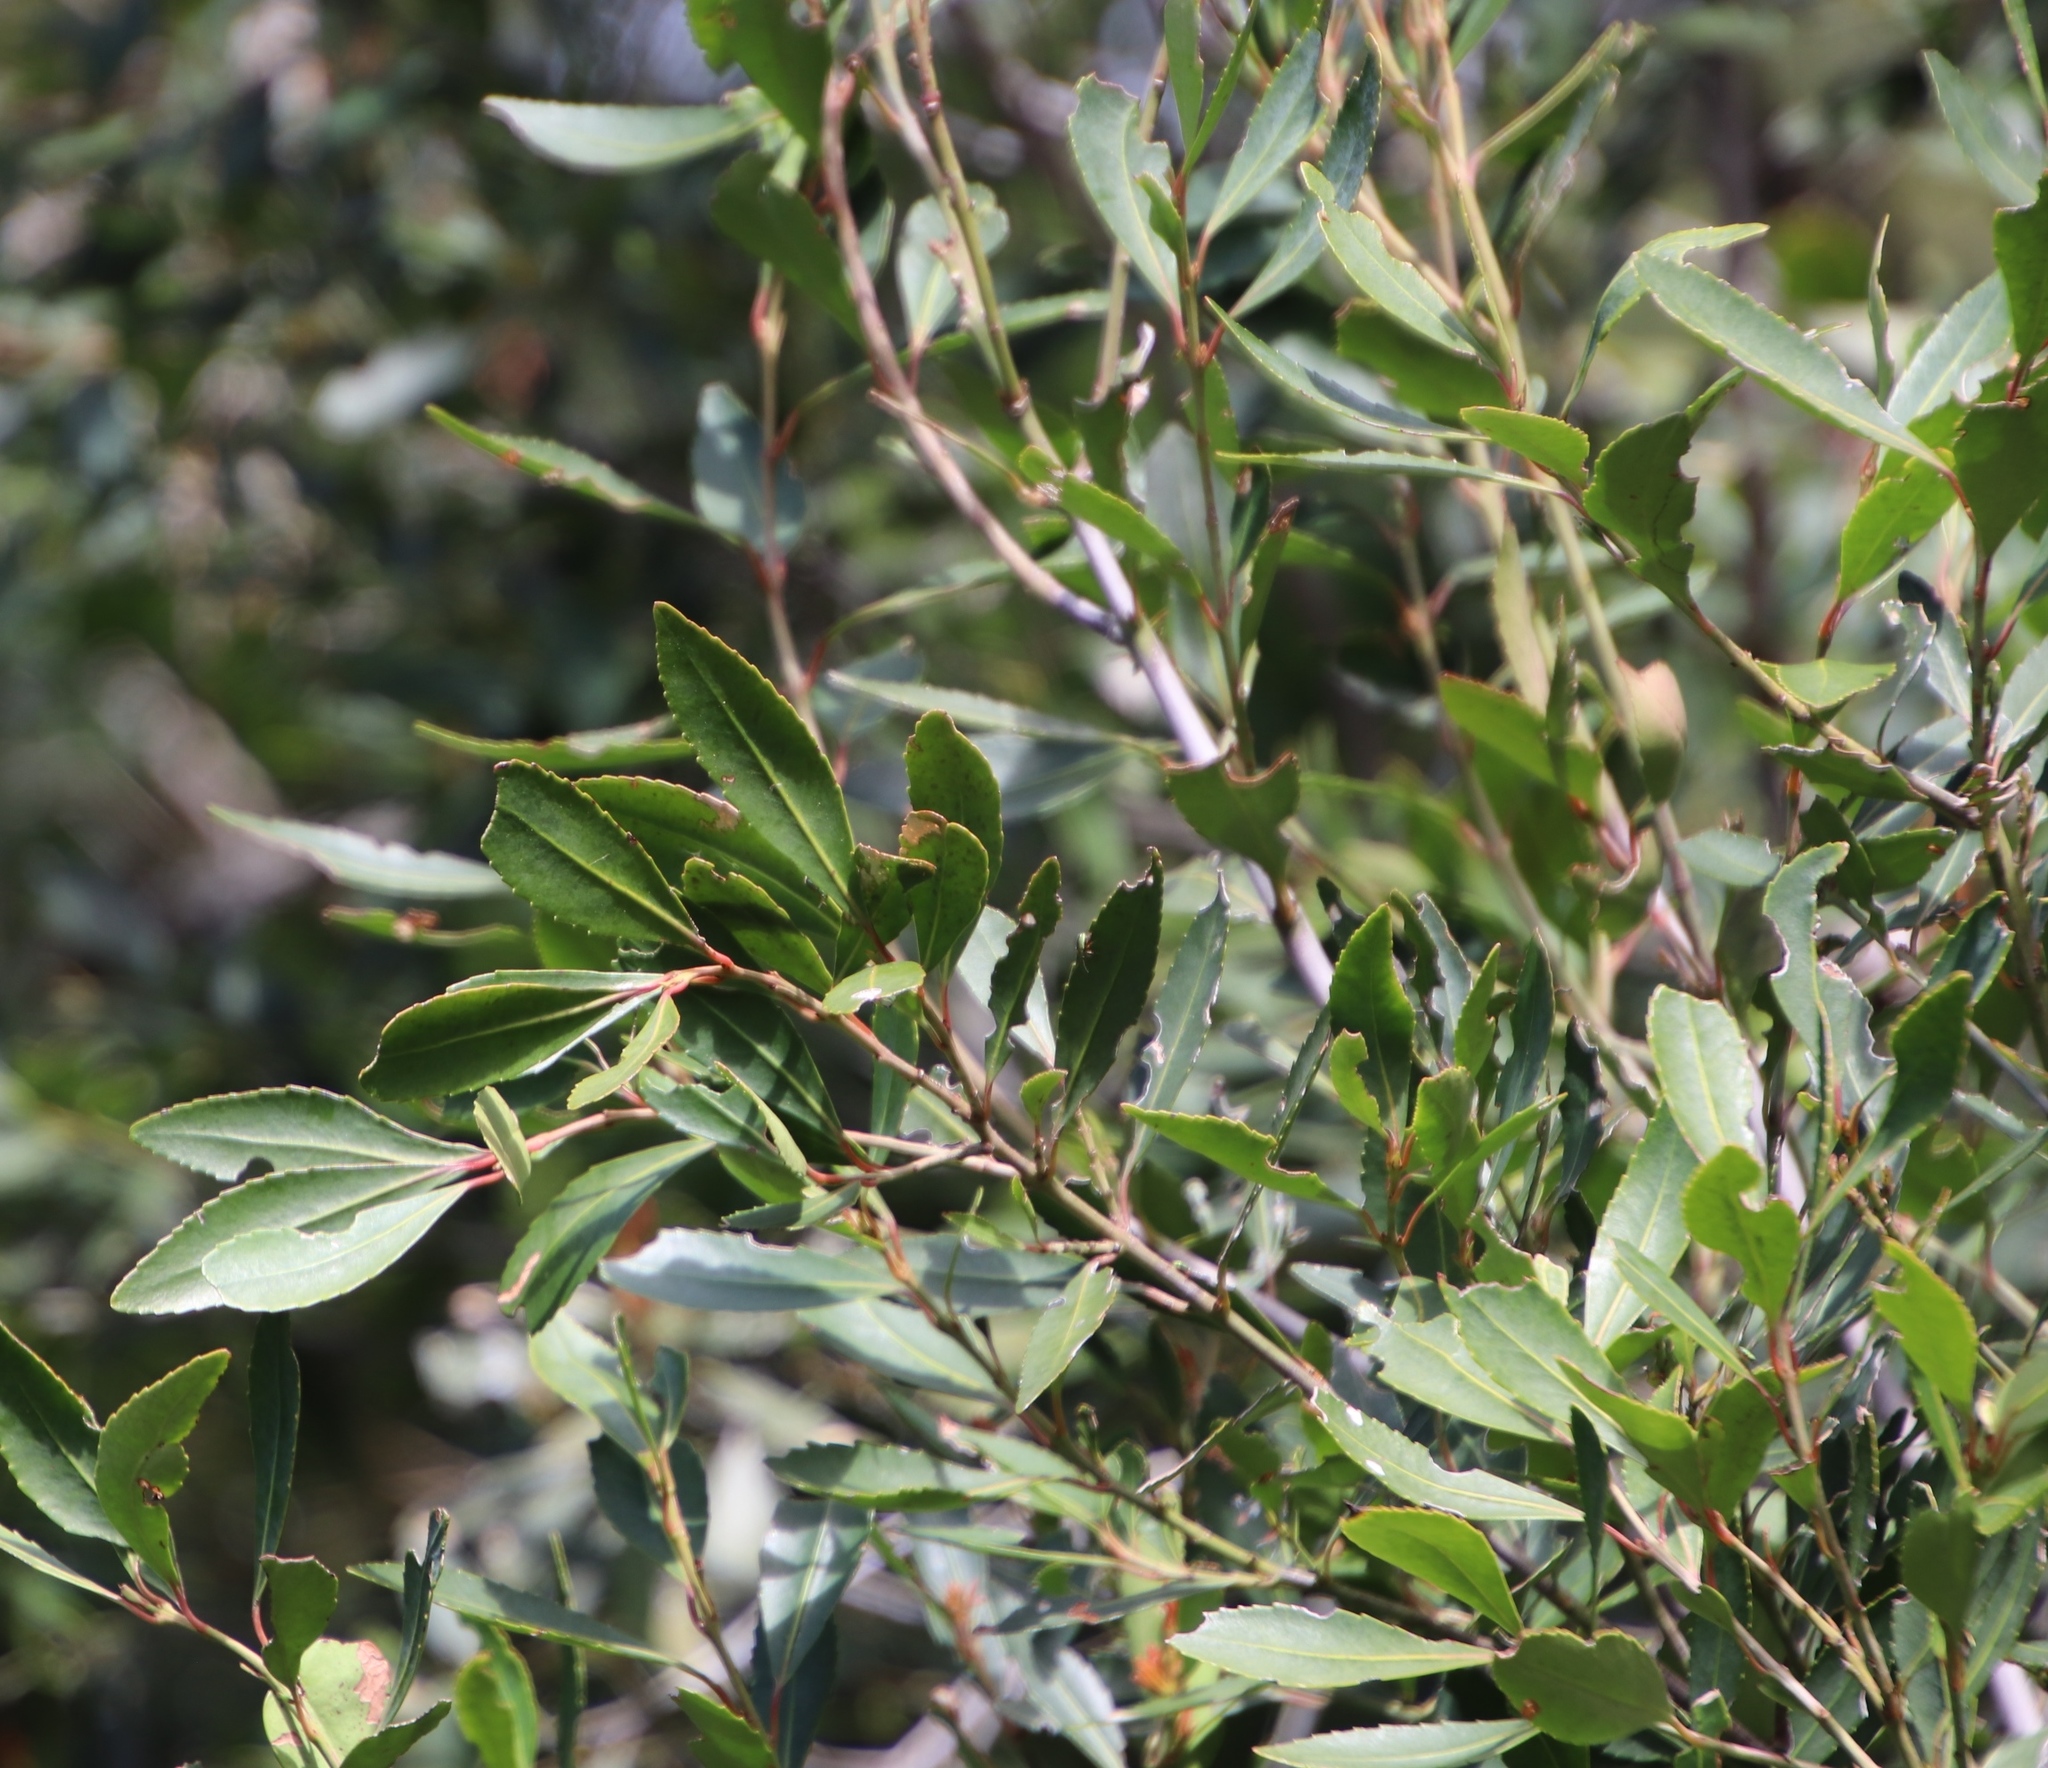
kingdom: Plantae
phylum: Tracheophyta
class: Magnoliopsida
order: Celastrales
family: Celastraceae
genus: Elaeodendron
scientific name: Elaeodendron schinoides
